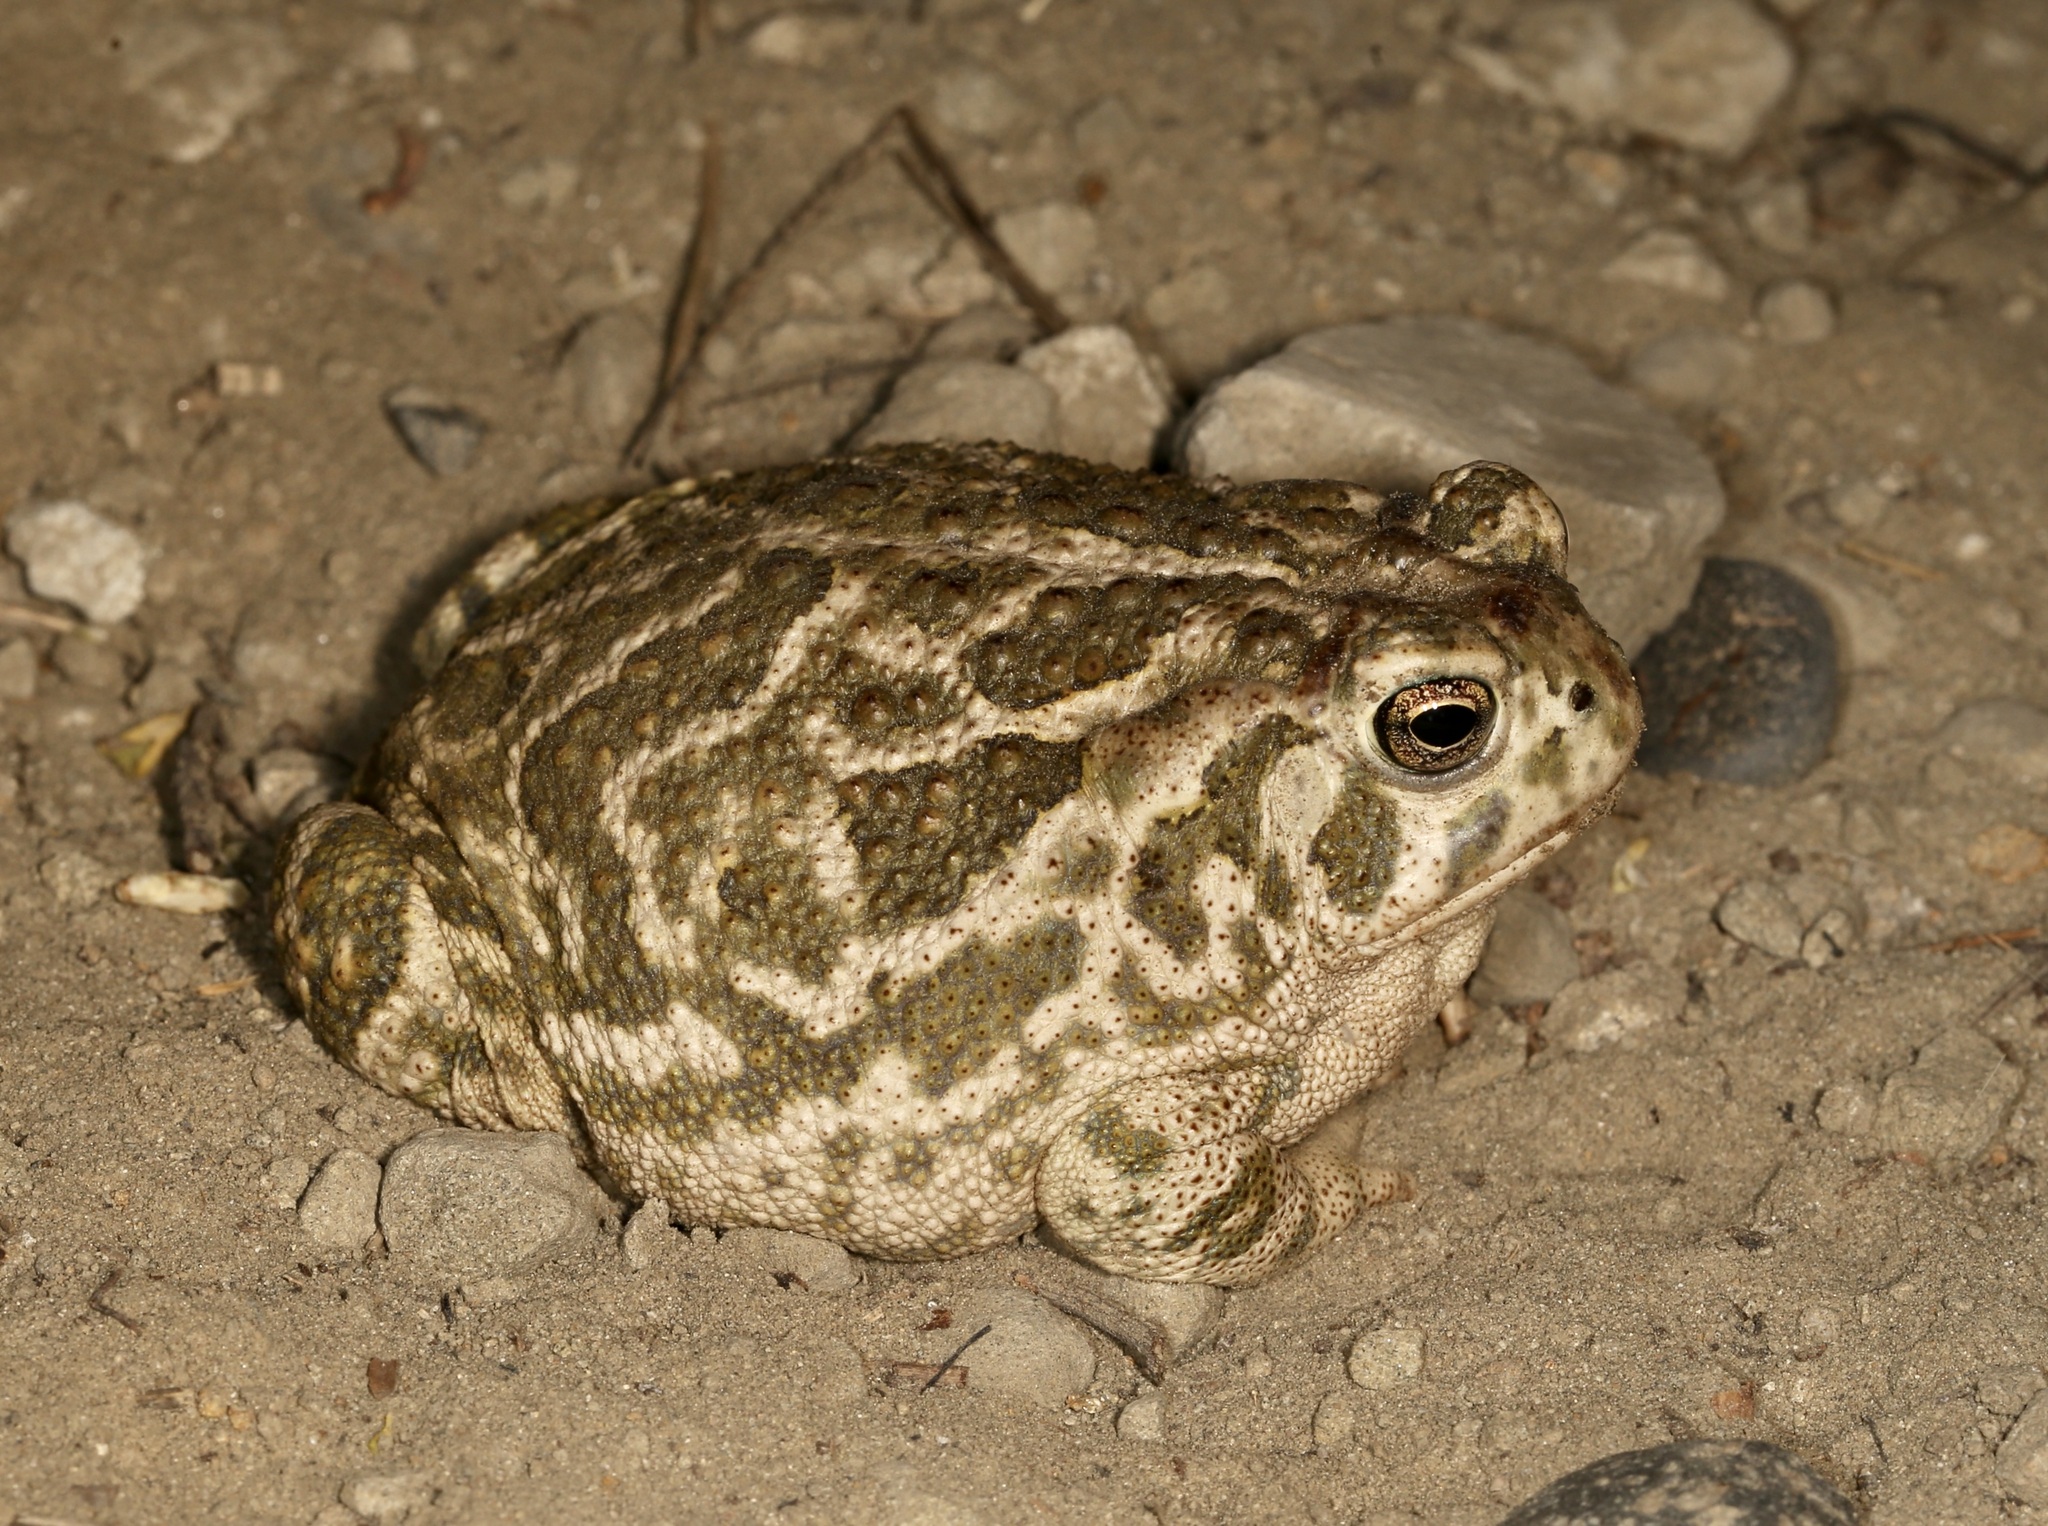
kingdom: Animalia
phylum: Chordata
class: Amphibia
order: Anura
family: Bufonidae
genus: Anaxyrus
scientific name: Anaxyrus cognatus
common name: Great plains toad
